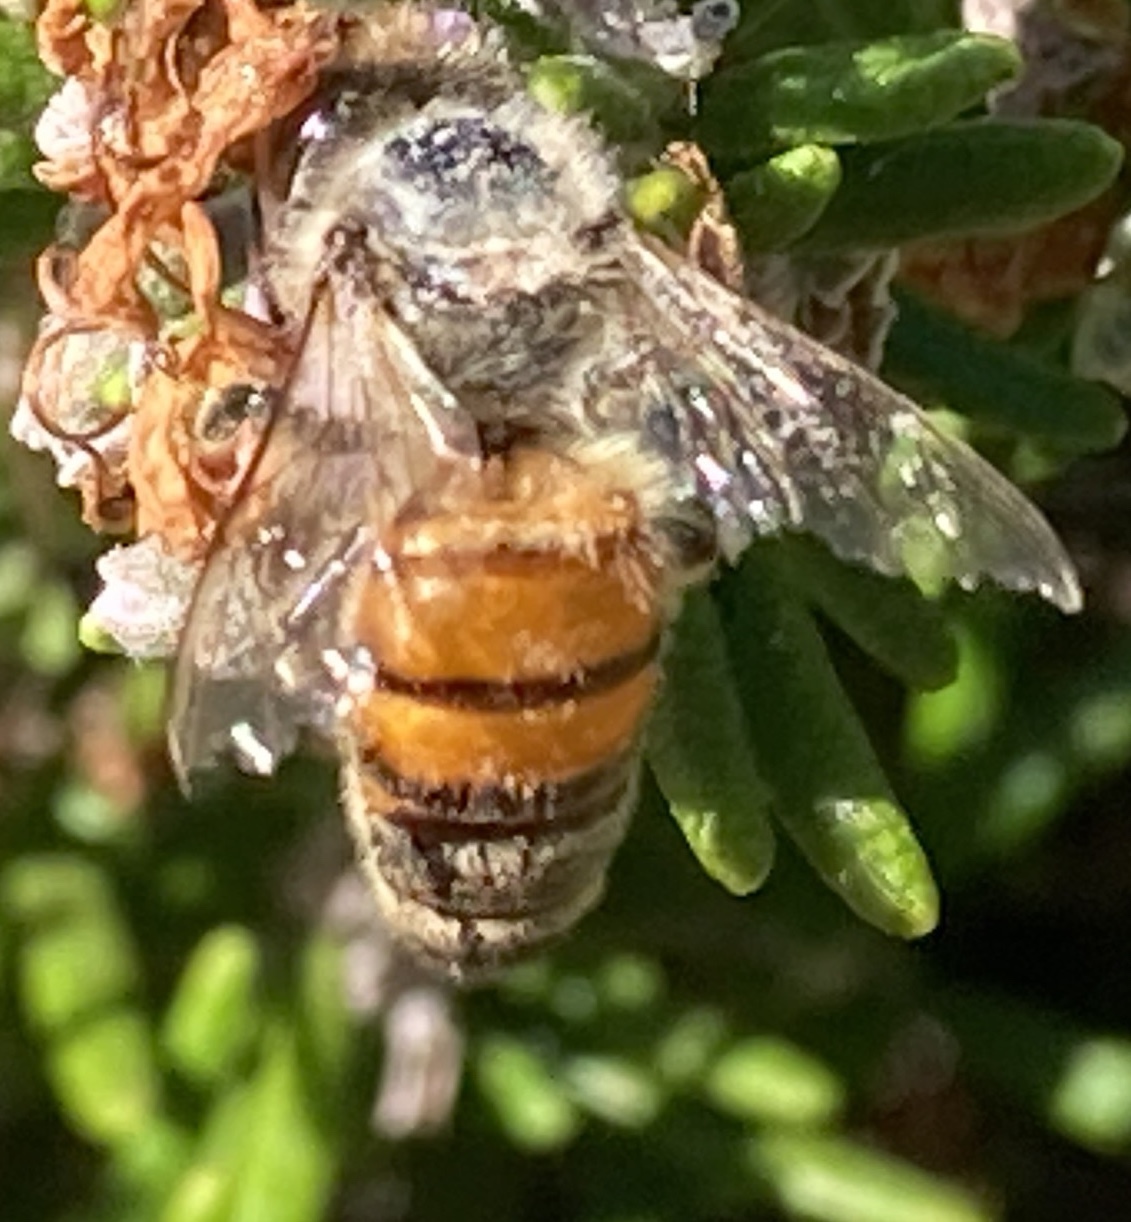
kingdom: Animalia
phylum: Arthropoda
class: Insecta
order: Hymenoptera
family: Apidae
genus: Apis
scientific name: Apis mellifera
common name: Honey bee
